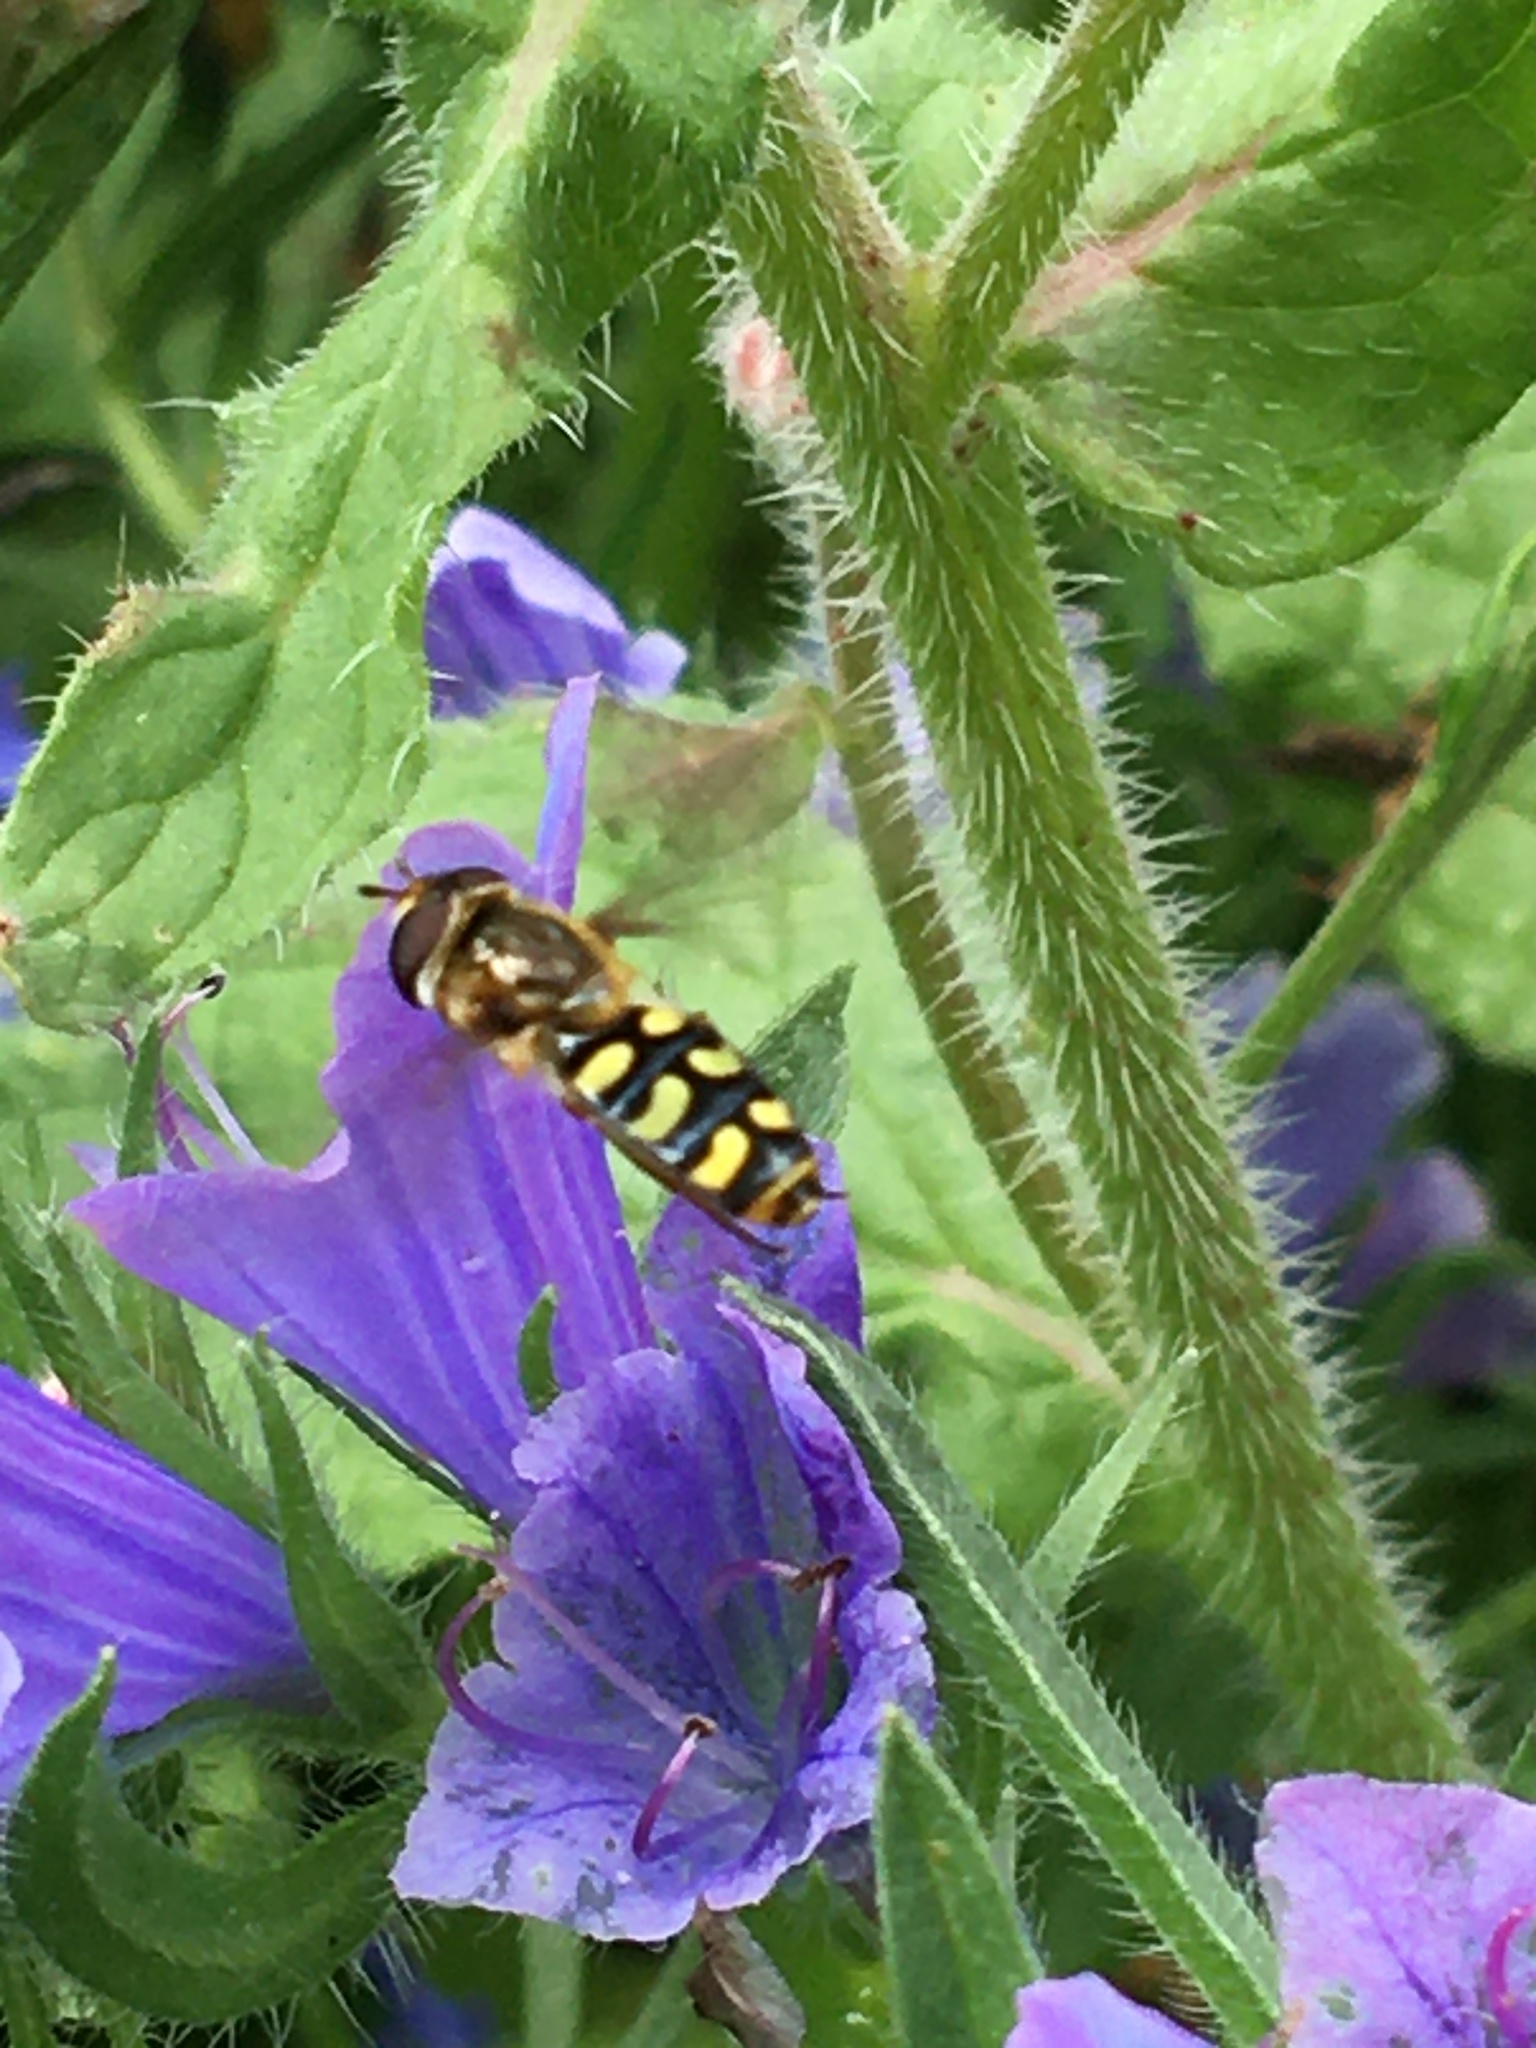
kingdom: Animalia
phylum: Arthropoda
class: Insecta
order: Diptera
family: Syrphidae
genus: Eupeodes
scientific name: Eupeodes
